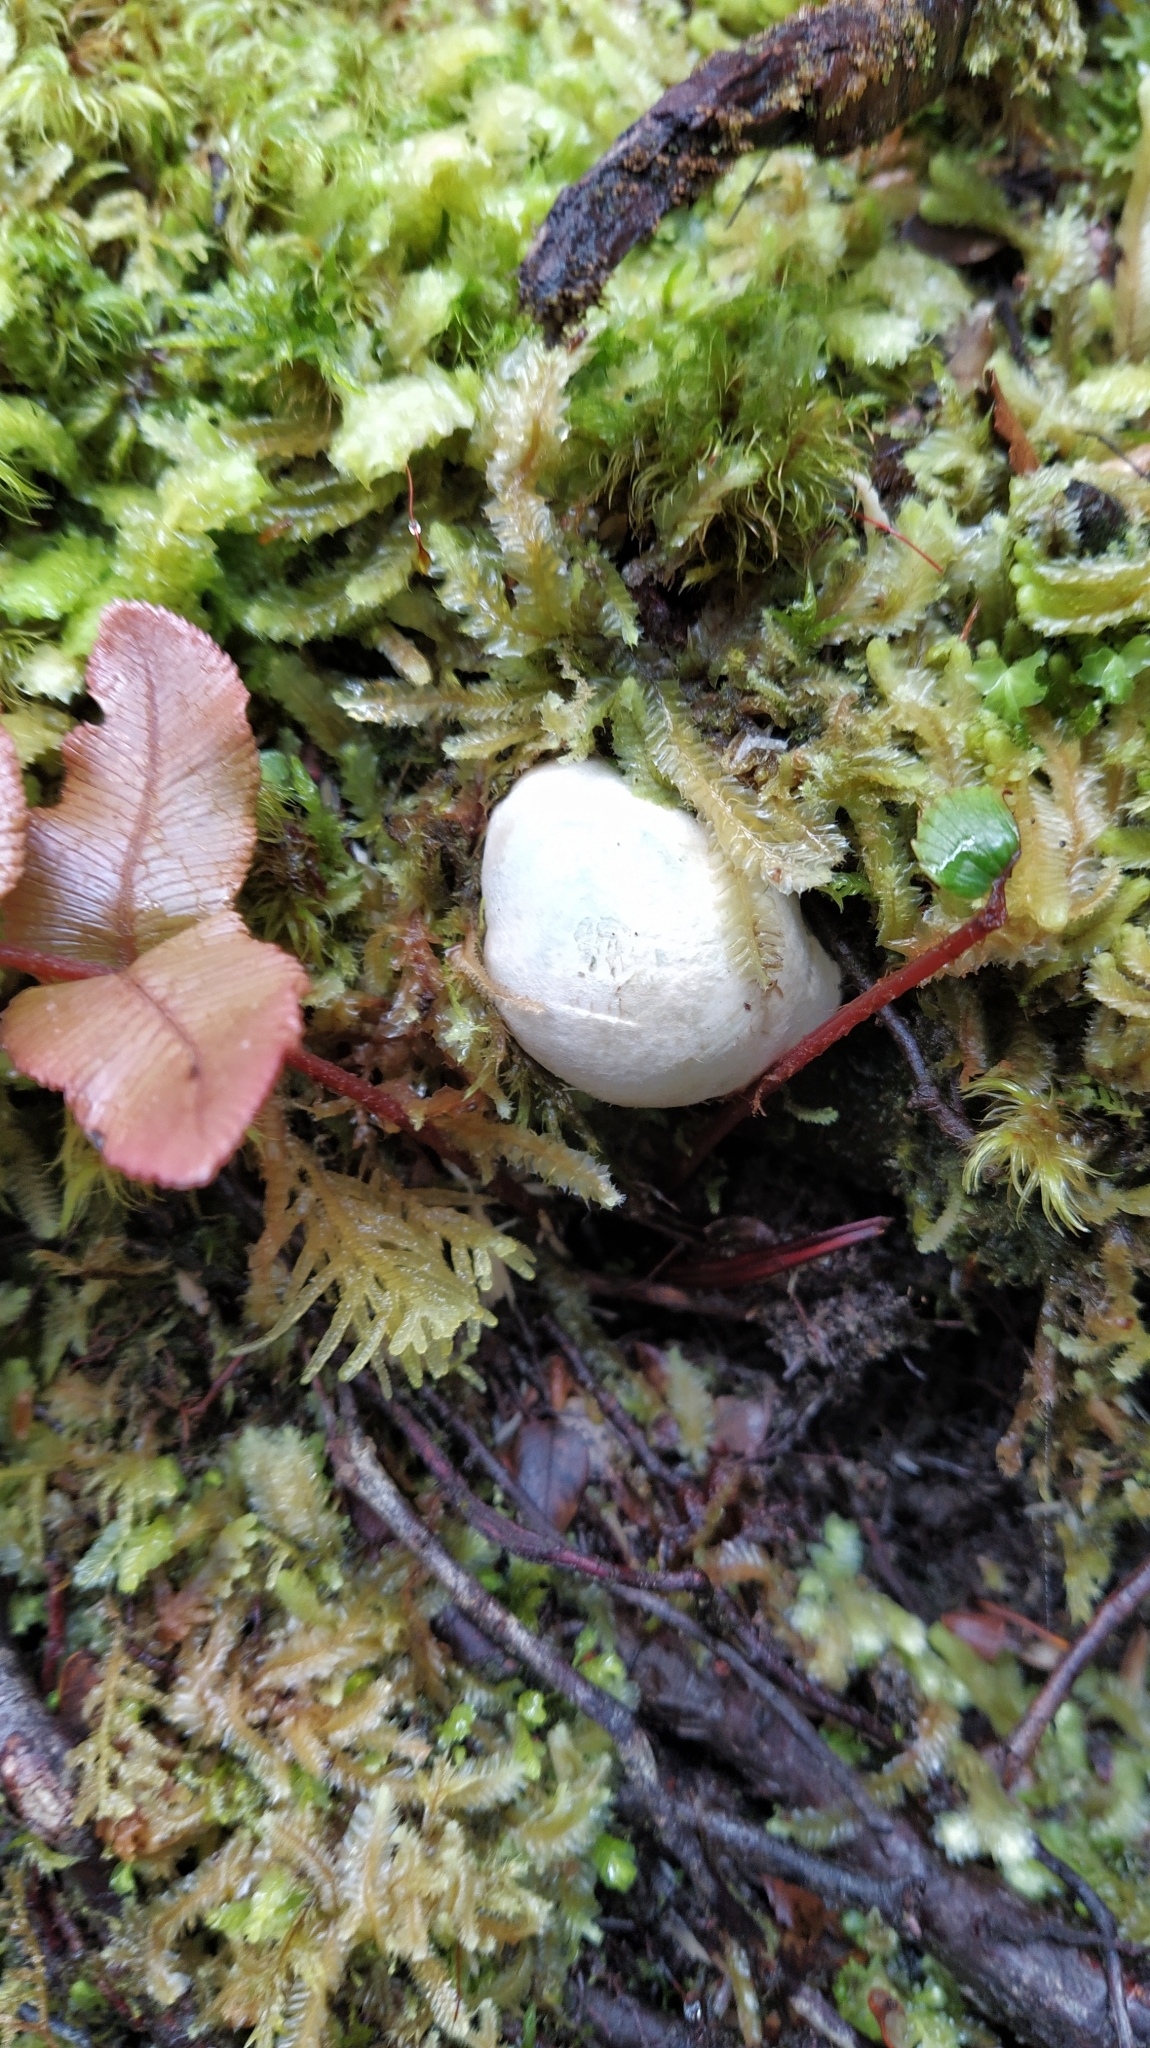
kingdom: Fungi
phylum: Basidiomycota
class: Agaricomycetes
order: Boletales
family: Boletaceae
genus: Leccinum
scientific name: Leccinum pachyderme
